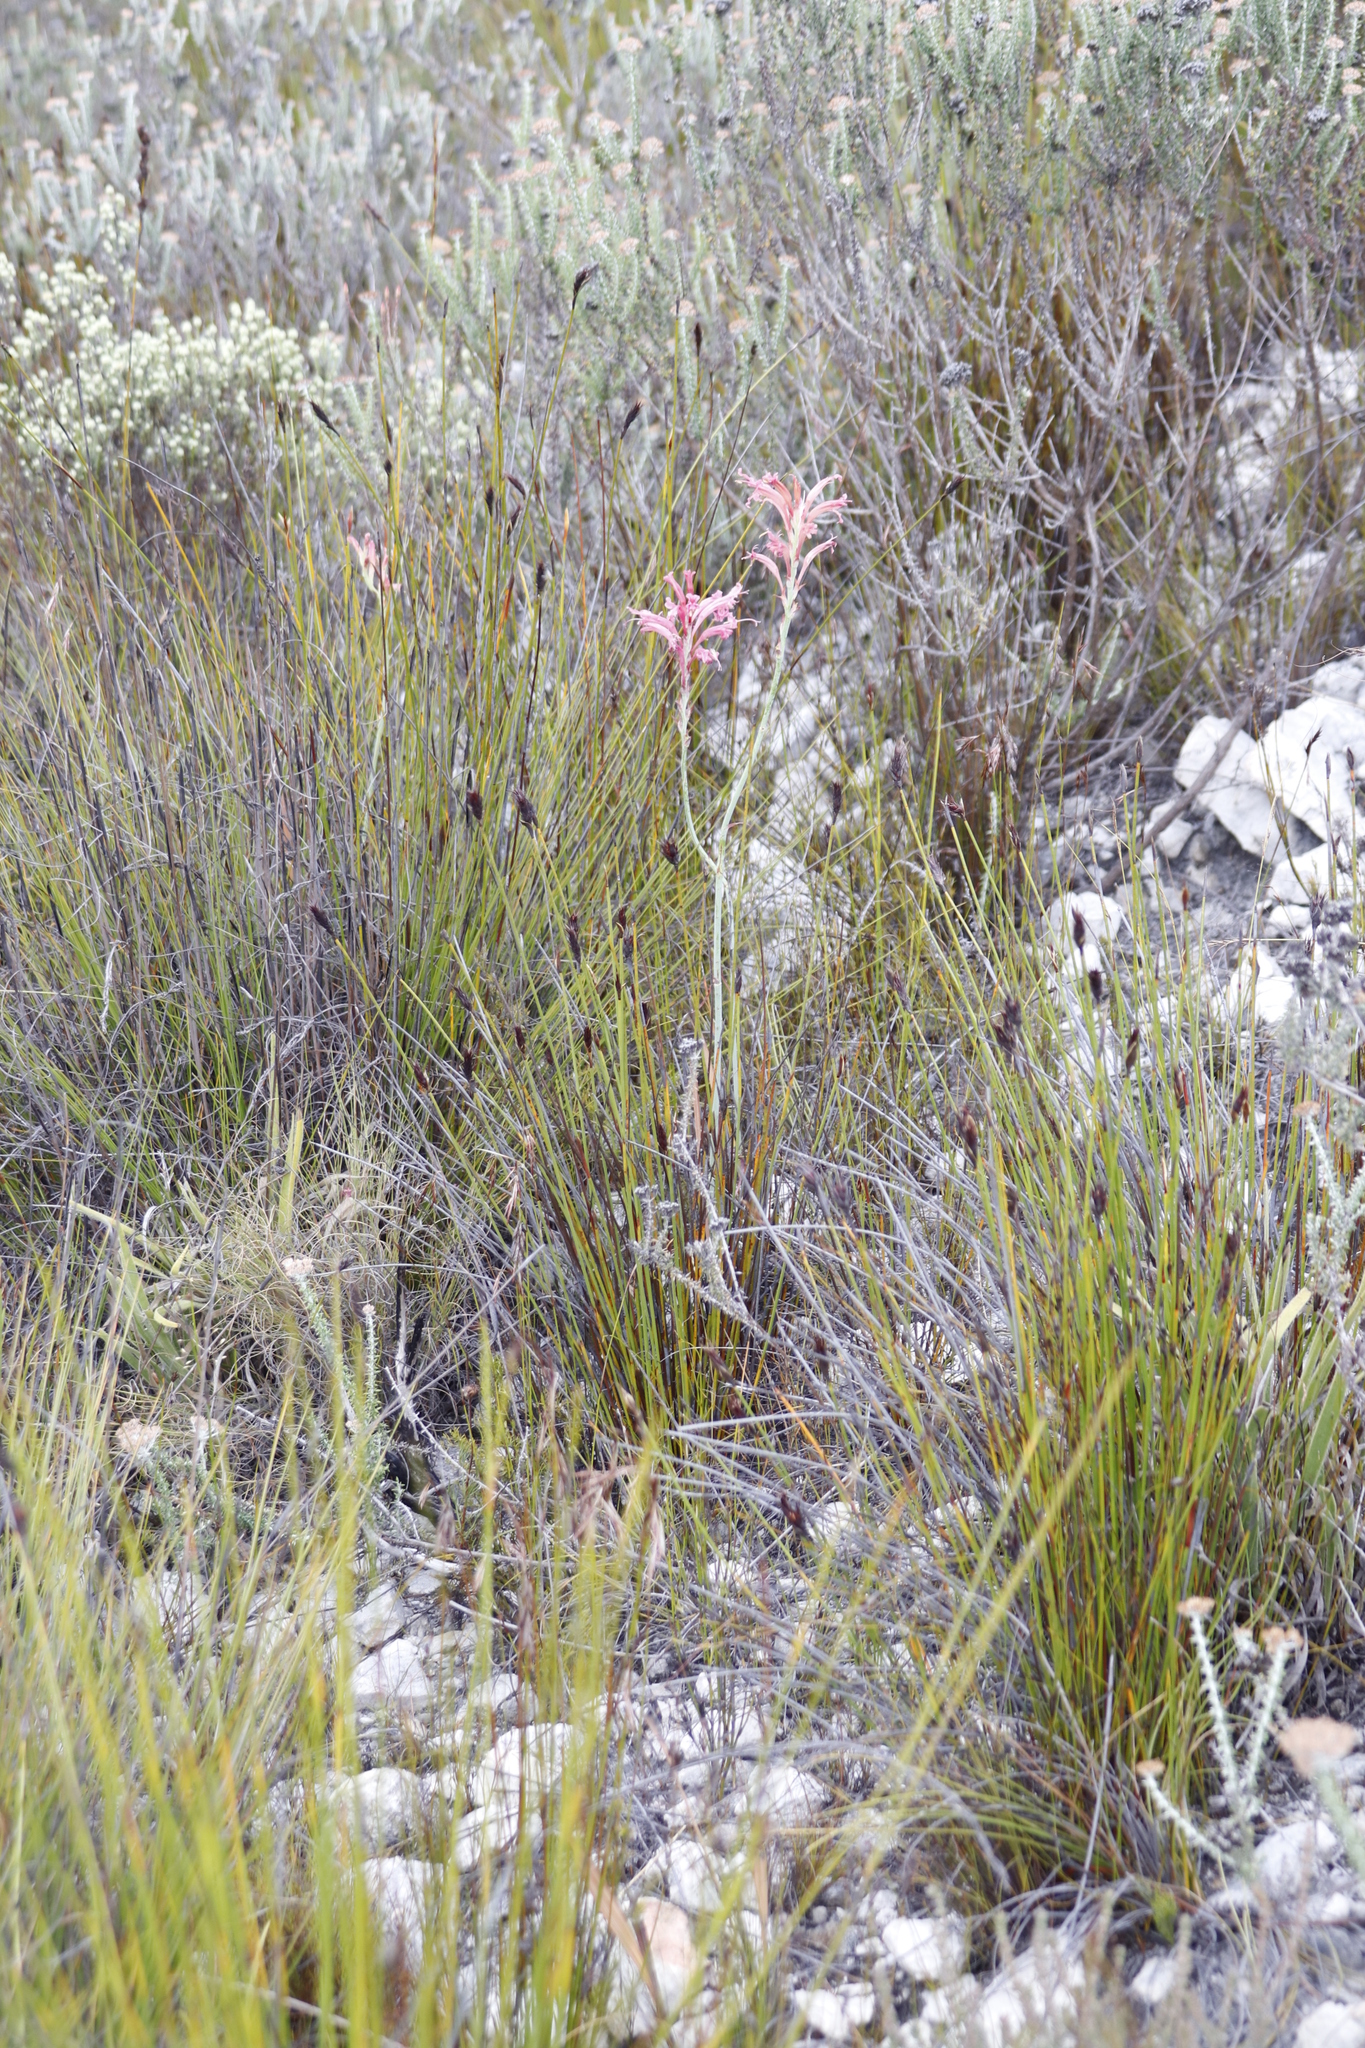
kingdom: Plantae
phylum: Tracheophyta
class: Liliopsida
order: Asparagales
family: Iridaceae
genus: Tritoniopsis
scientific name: Tritoniopsis antholyza
